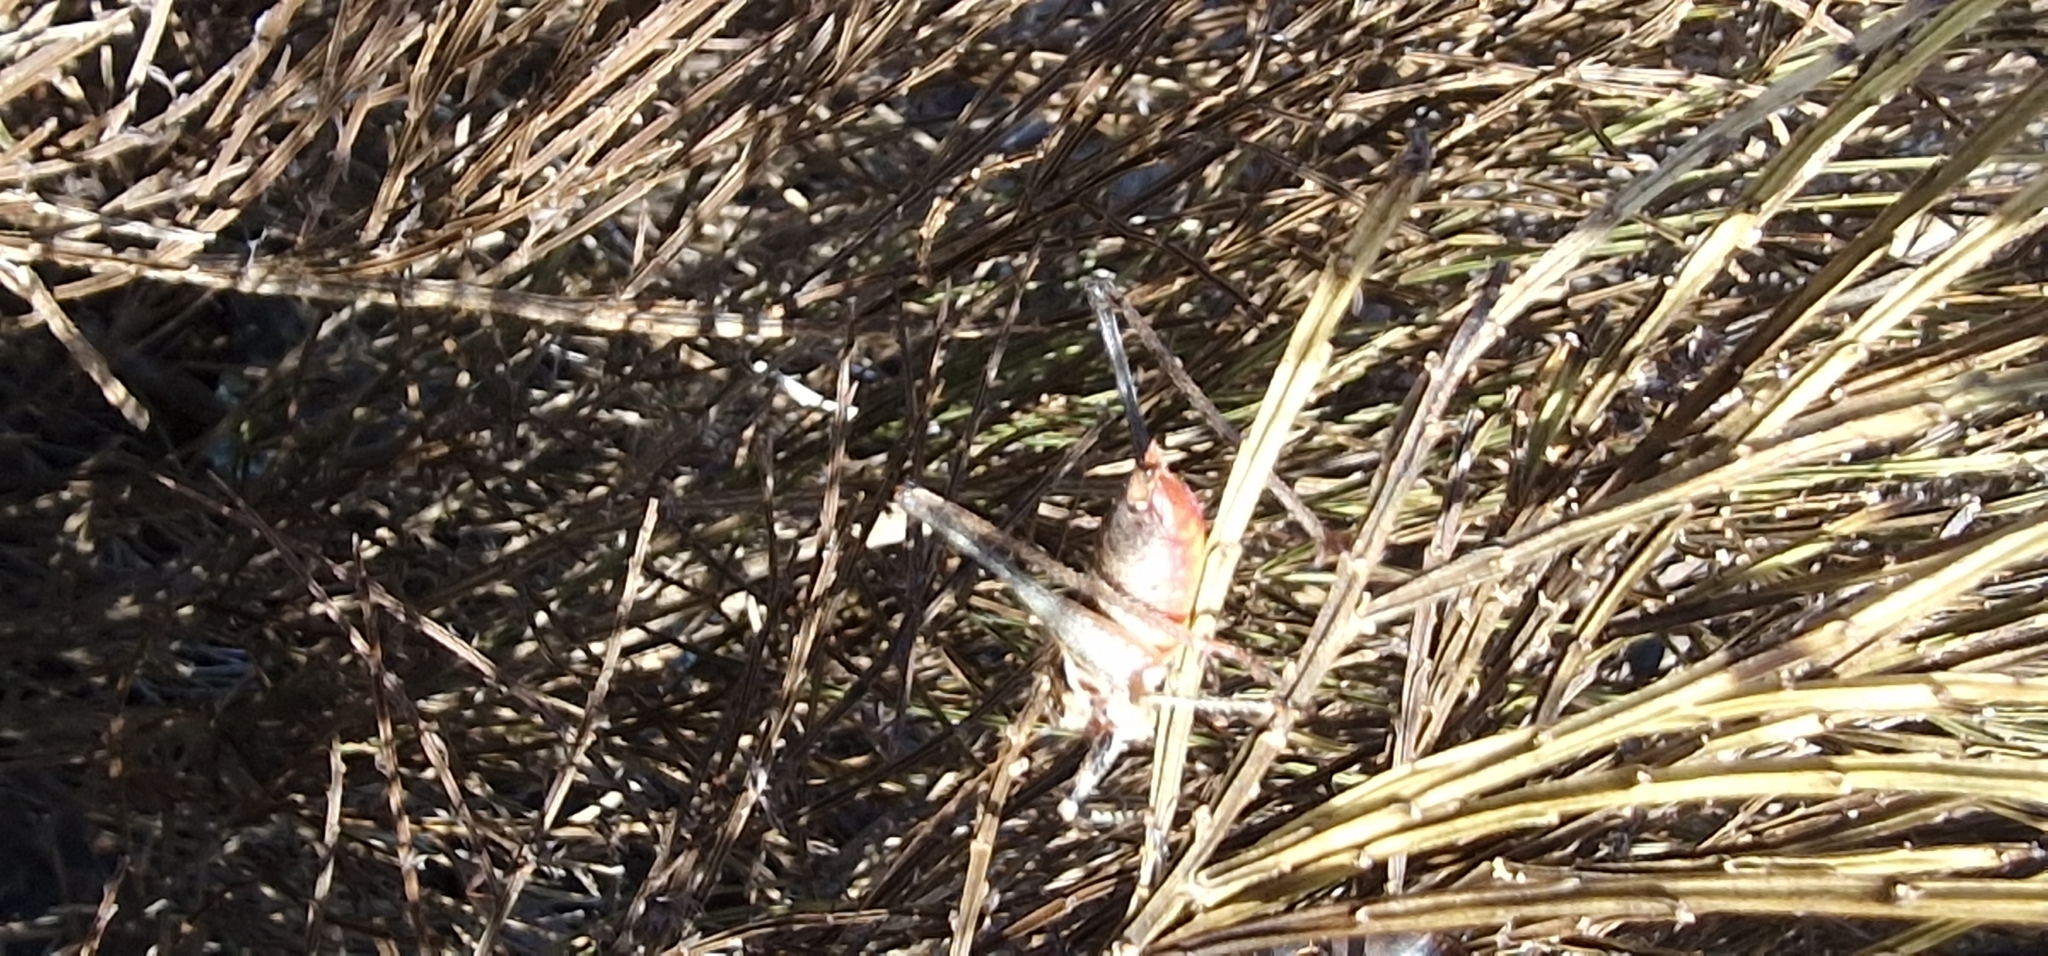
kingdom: Animalia
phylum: Arthropoda
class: Insecta
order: Orthoptera
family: Tettigoniidae
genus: Antaxius
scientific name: Antaxius spinibrachius
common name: Spiny-legged bush-cricket
